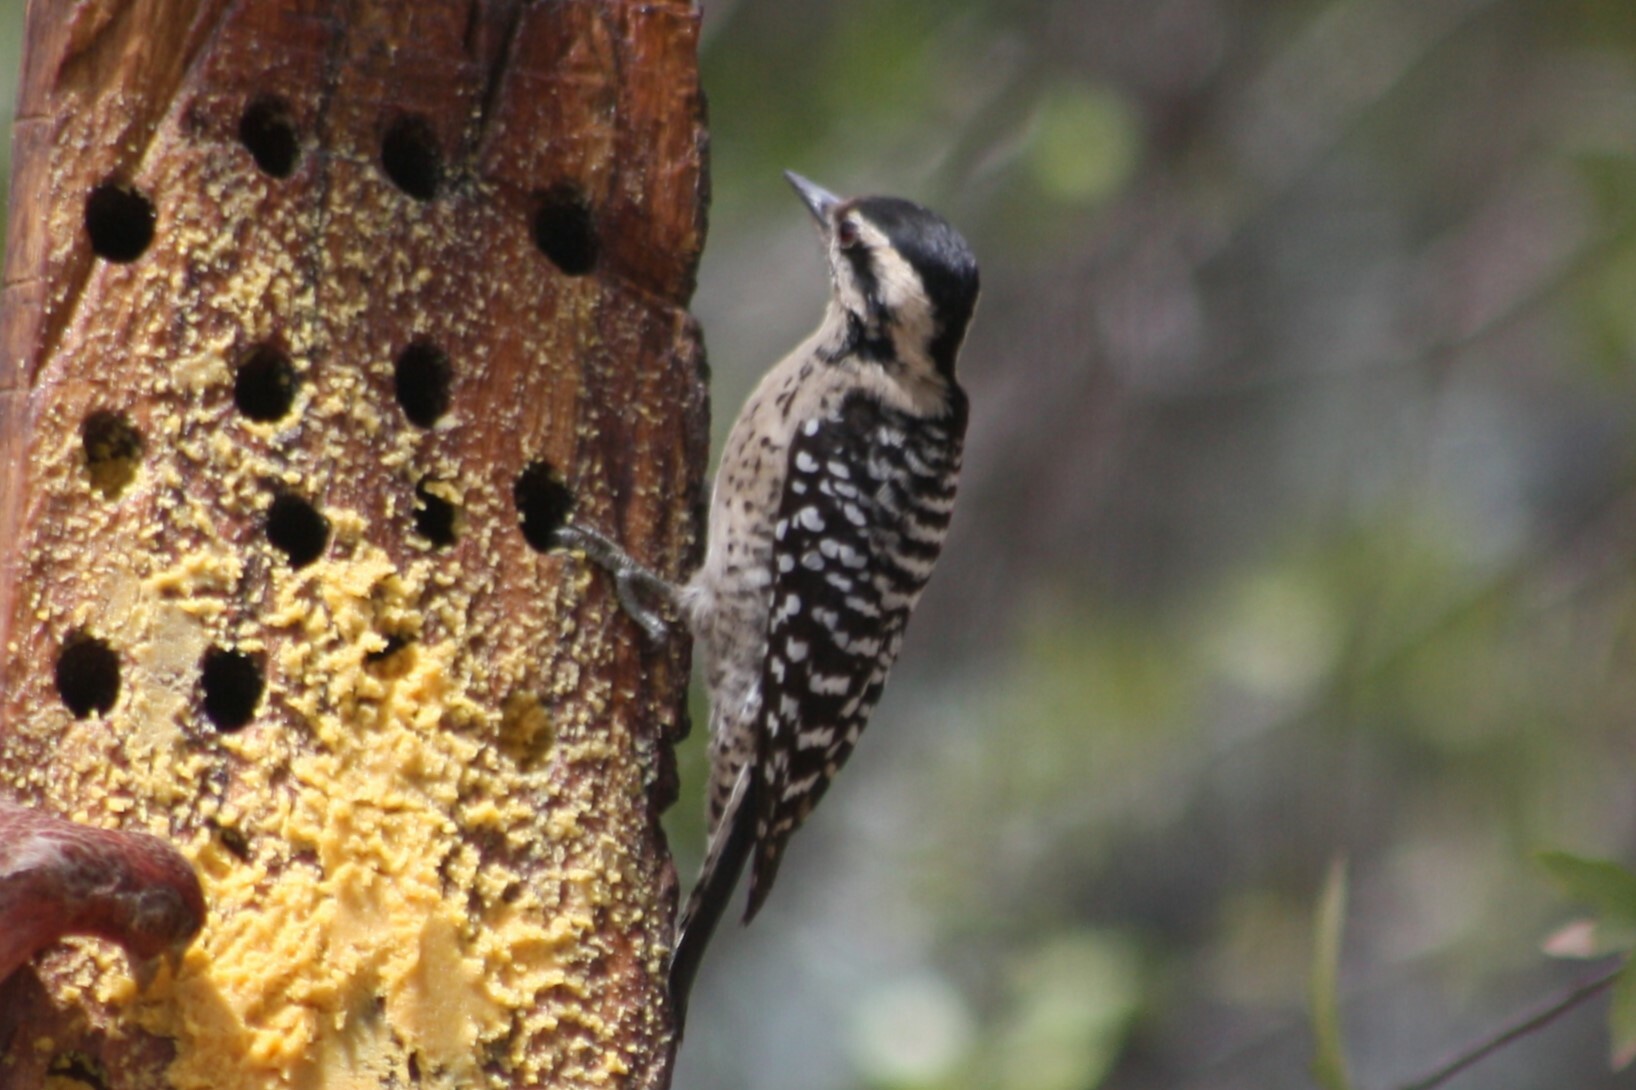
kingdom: Animalia
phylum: Chordata
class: Aves
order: Piciformes
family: Picidae
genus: Dryobates
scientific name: Dryobates scalaris
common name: Ladder-backed woodpecker
